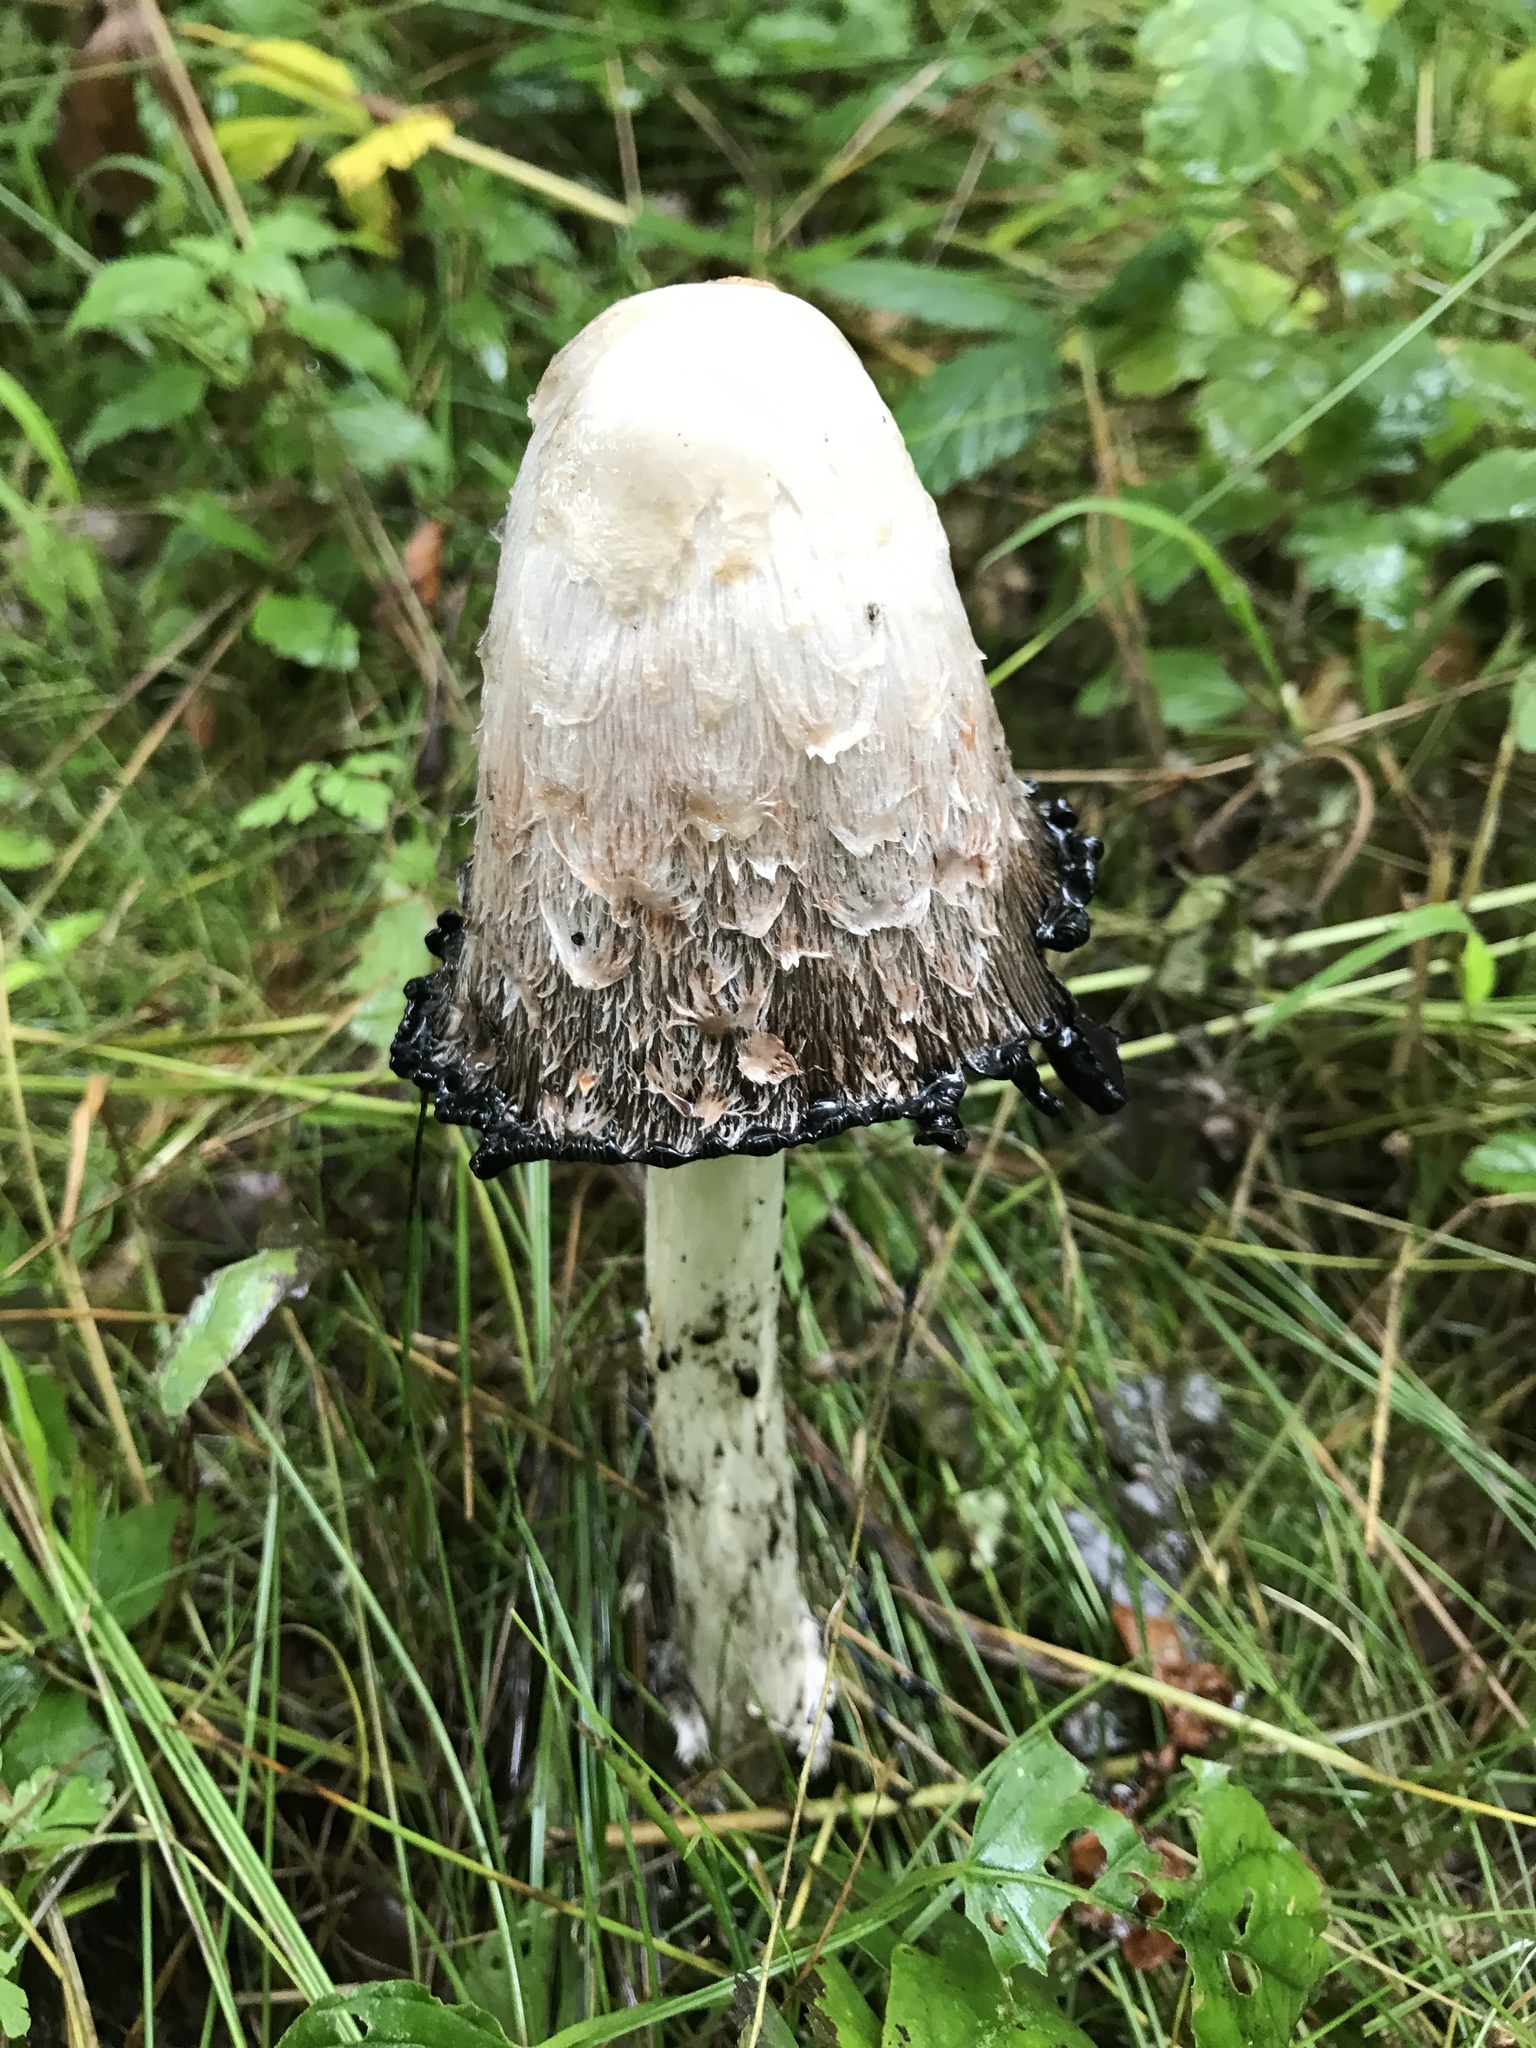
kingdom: Fungi
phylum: Basidiomycota
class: Agaricomycetes
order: Agaricales
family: Agaricaceae
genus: Coprinus
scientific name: Coprinus comatus
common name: Lawyer's wig
